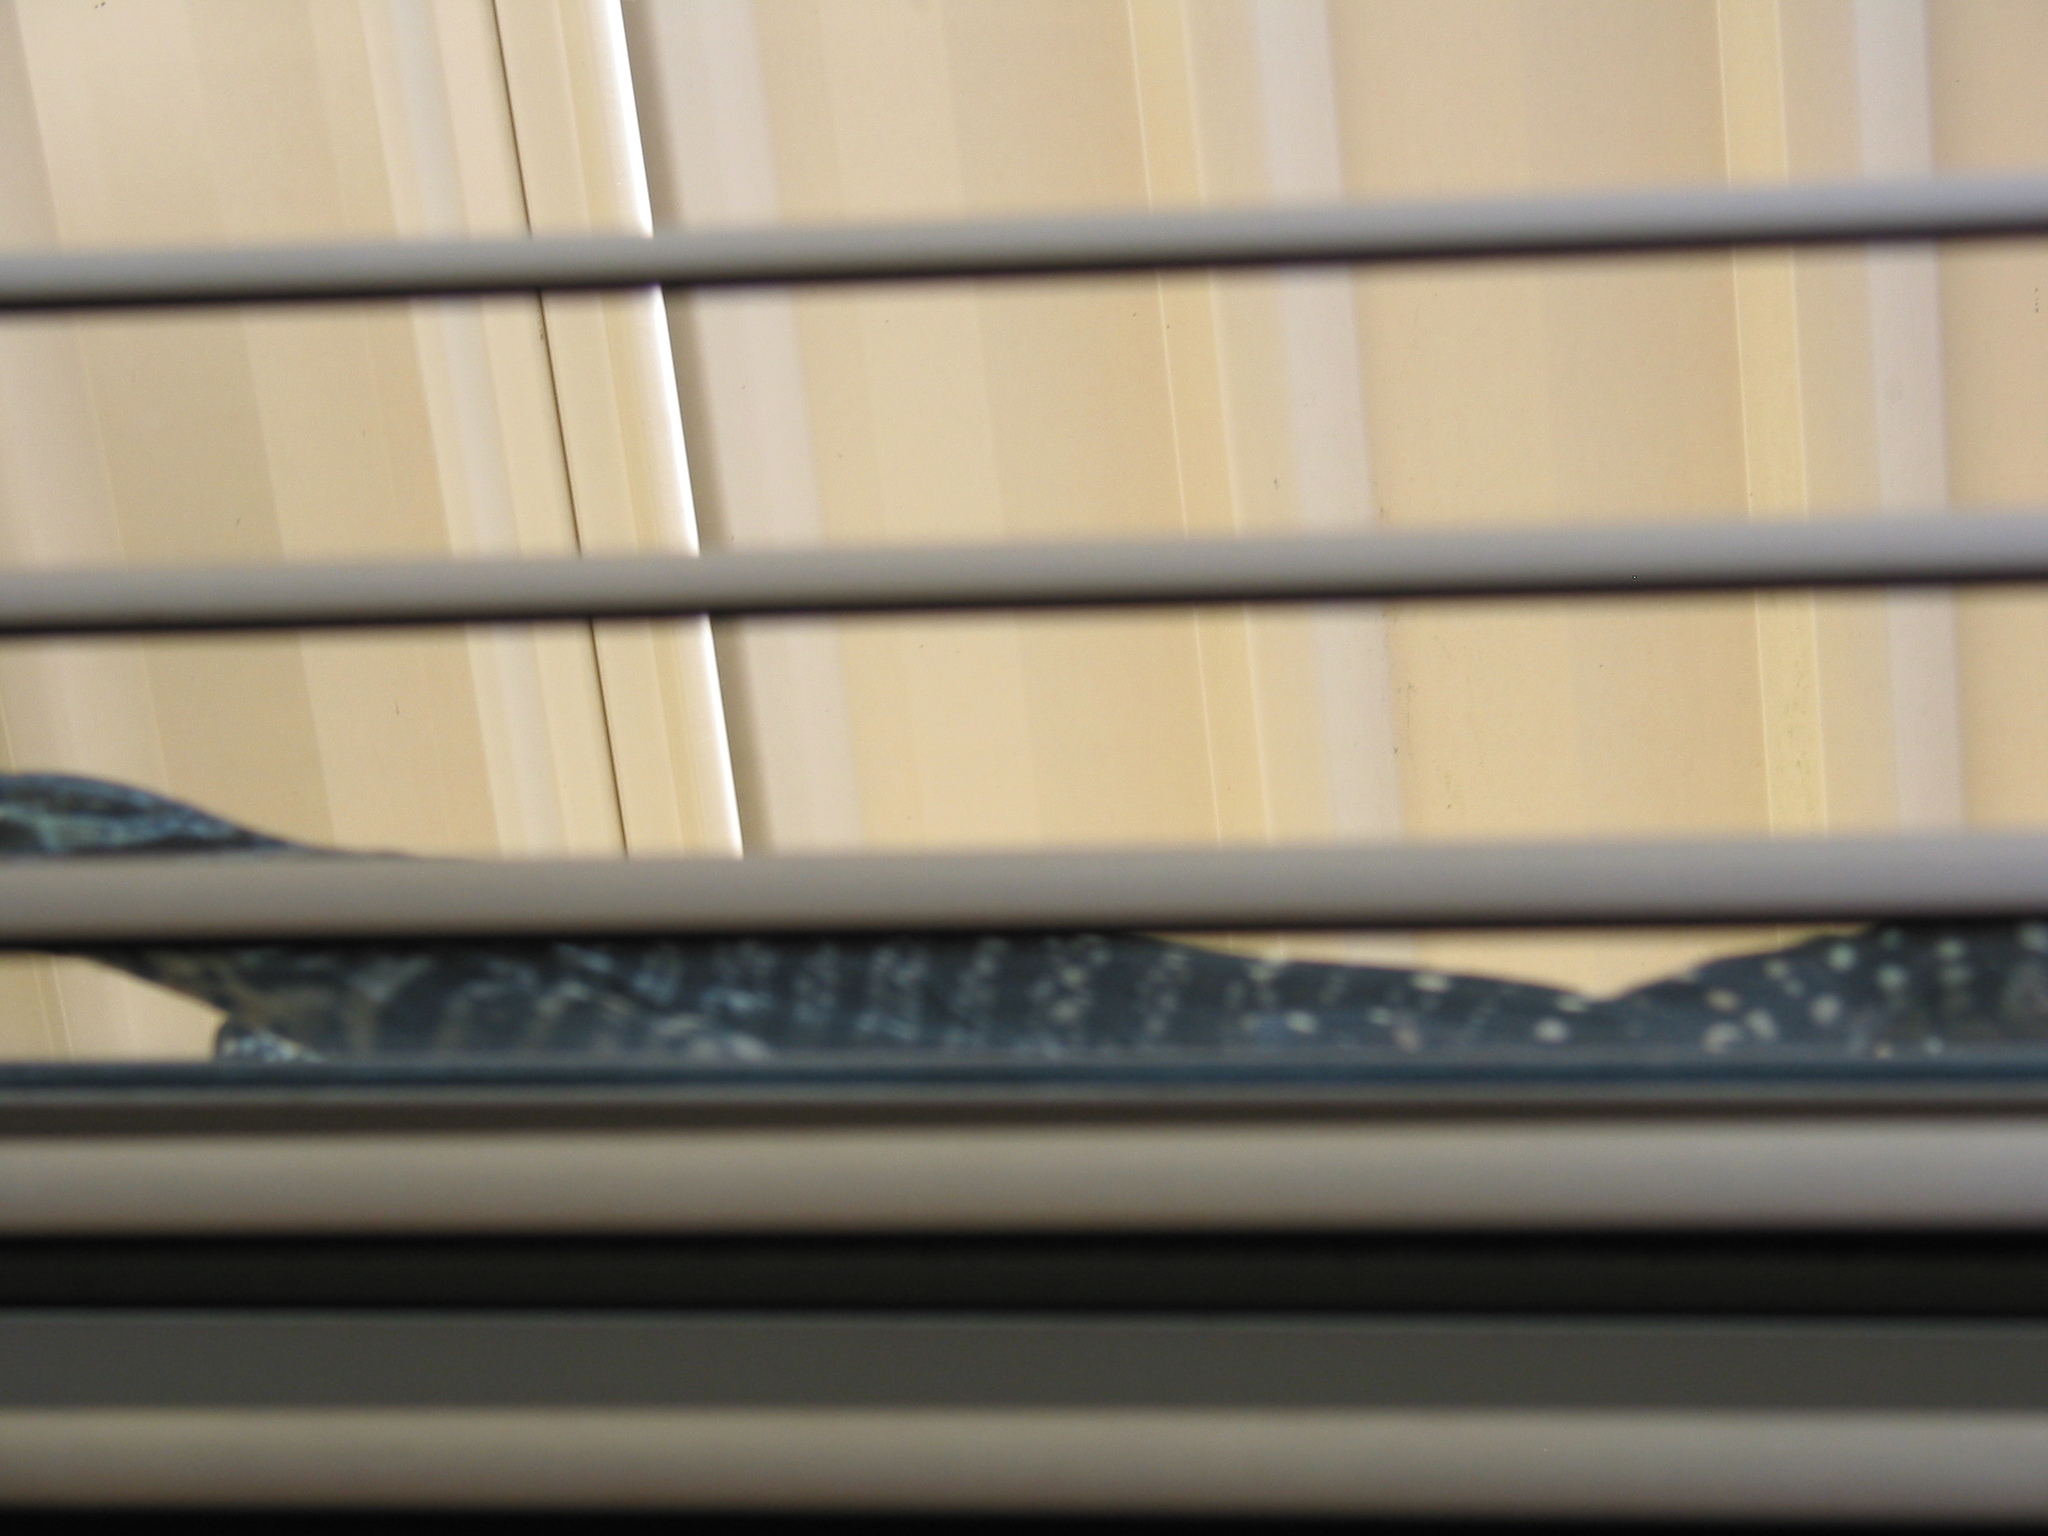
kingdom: Animalia
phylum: Chordata
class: Squamata
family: Varanidae
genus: Varanus
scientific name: Varanus varius
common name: Lace monitor
